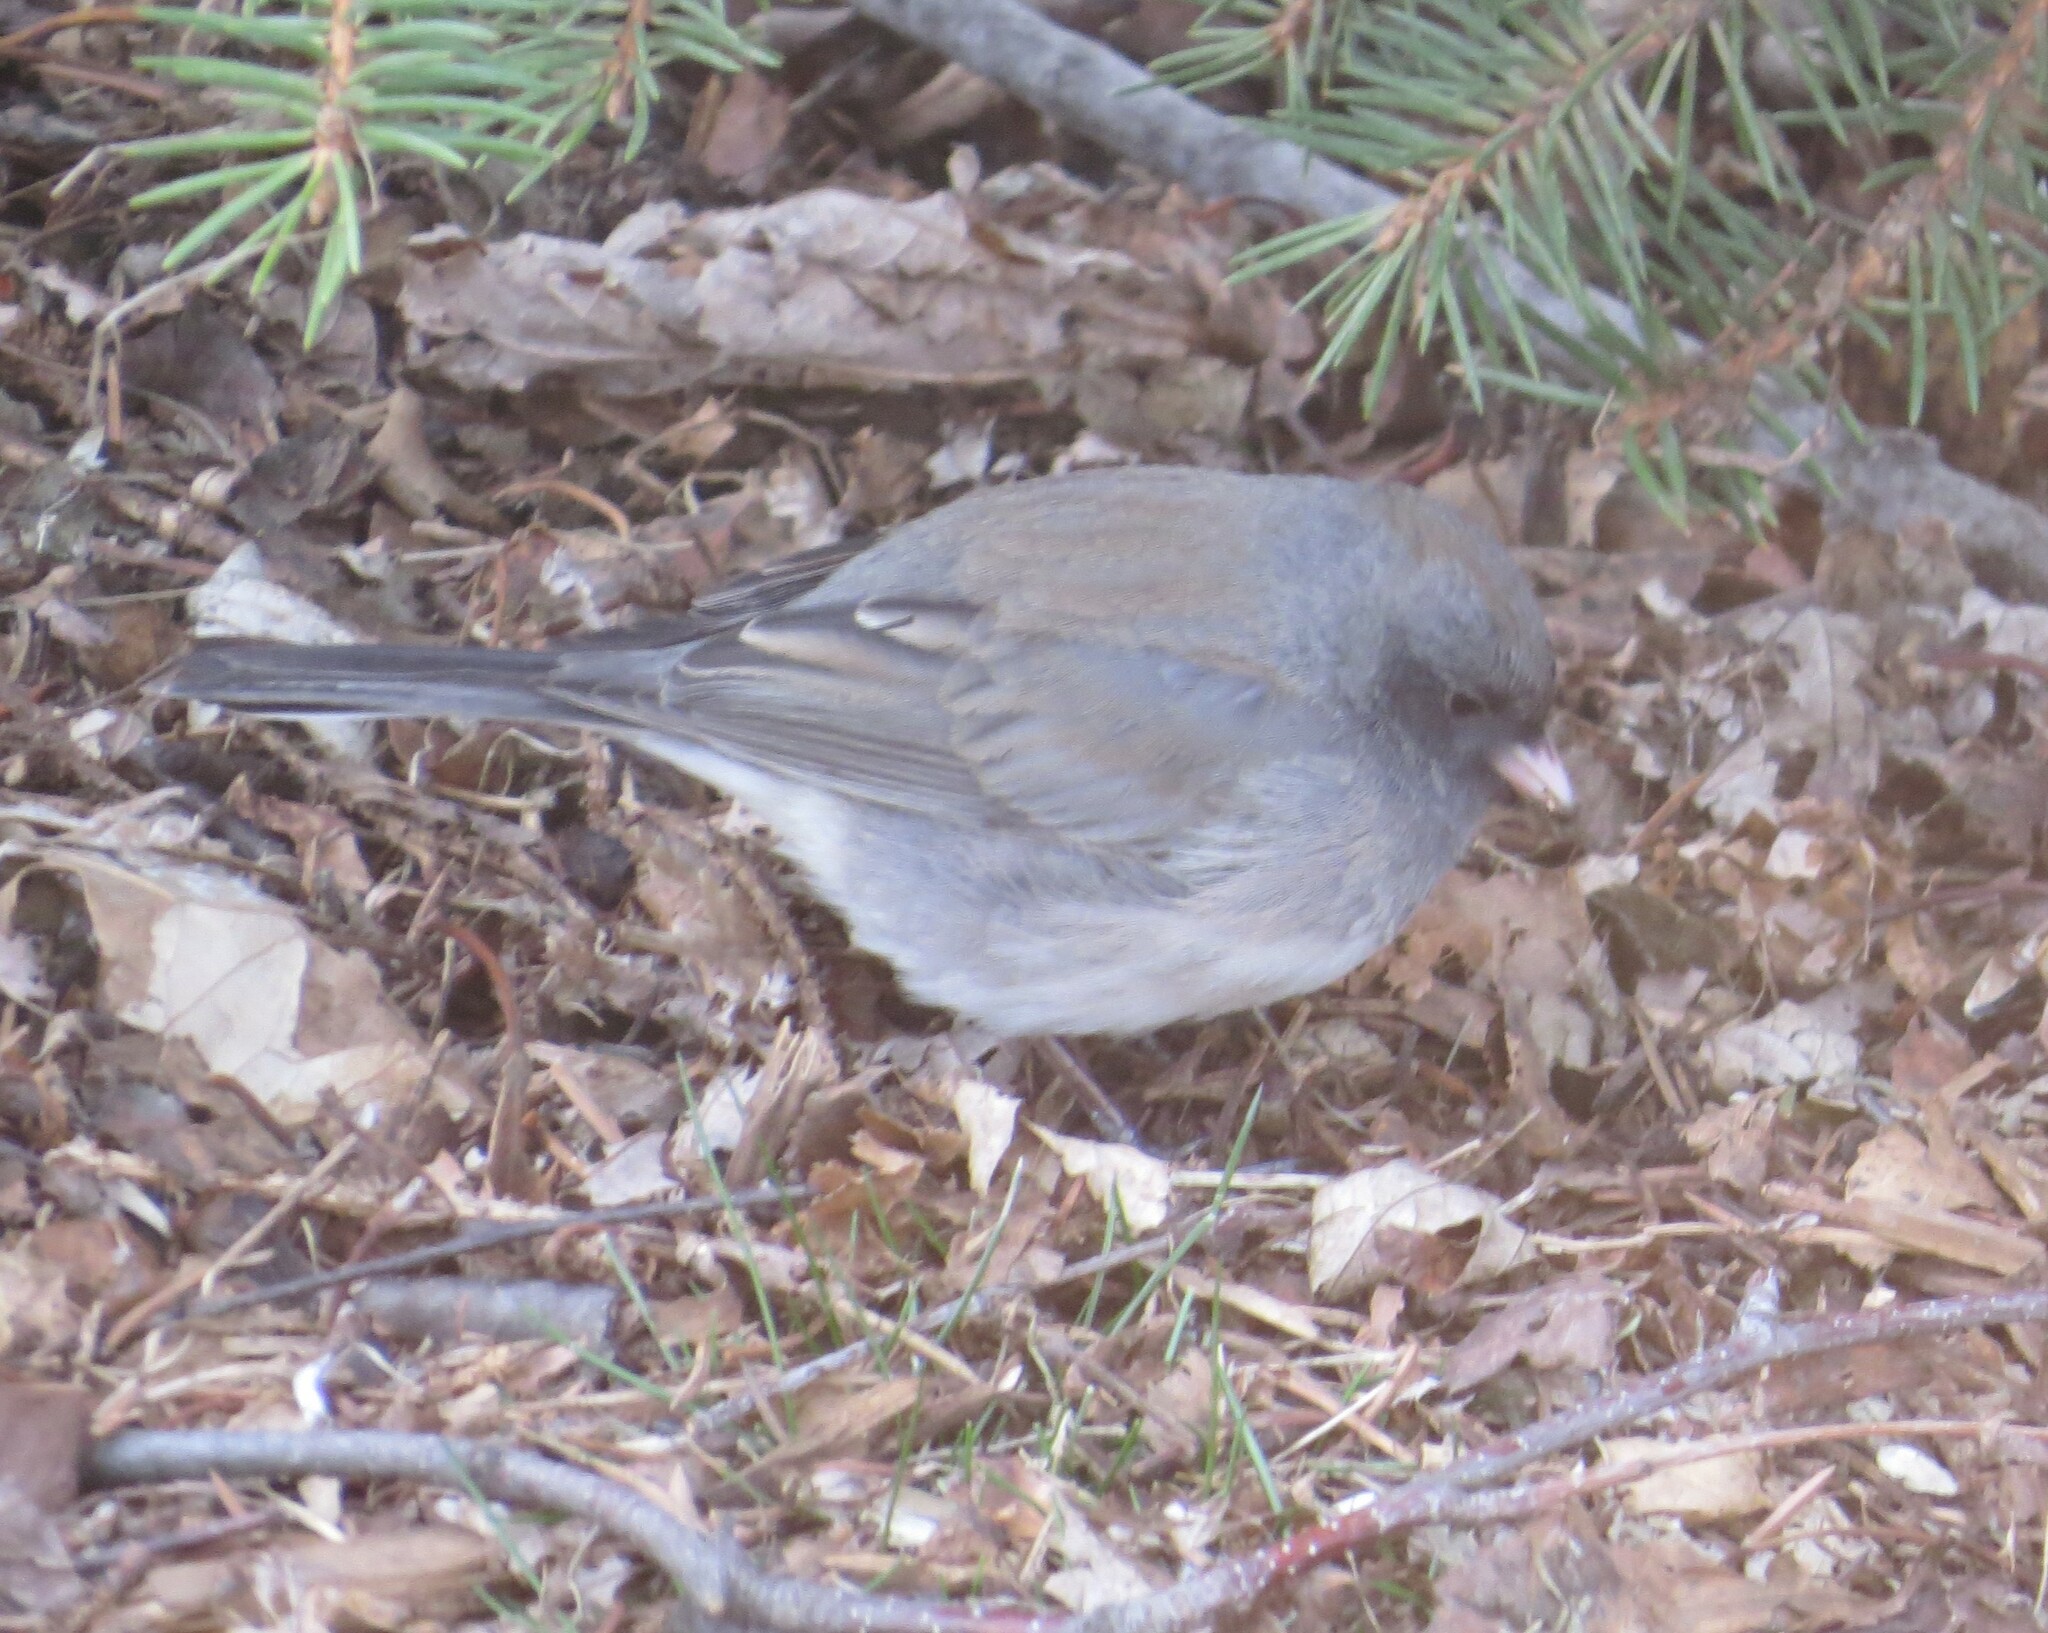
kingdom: Animalia
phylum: Chordata
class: Aves
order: Passeriformes
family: Passerellidae
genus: Junco
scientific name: Junco hyemalis
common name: Dark-eyed junco
